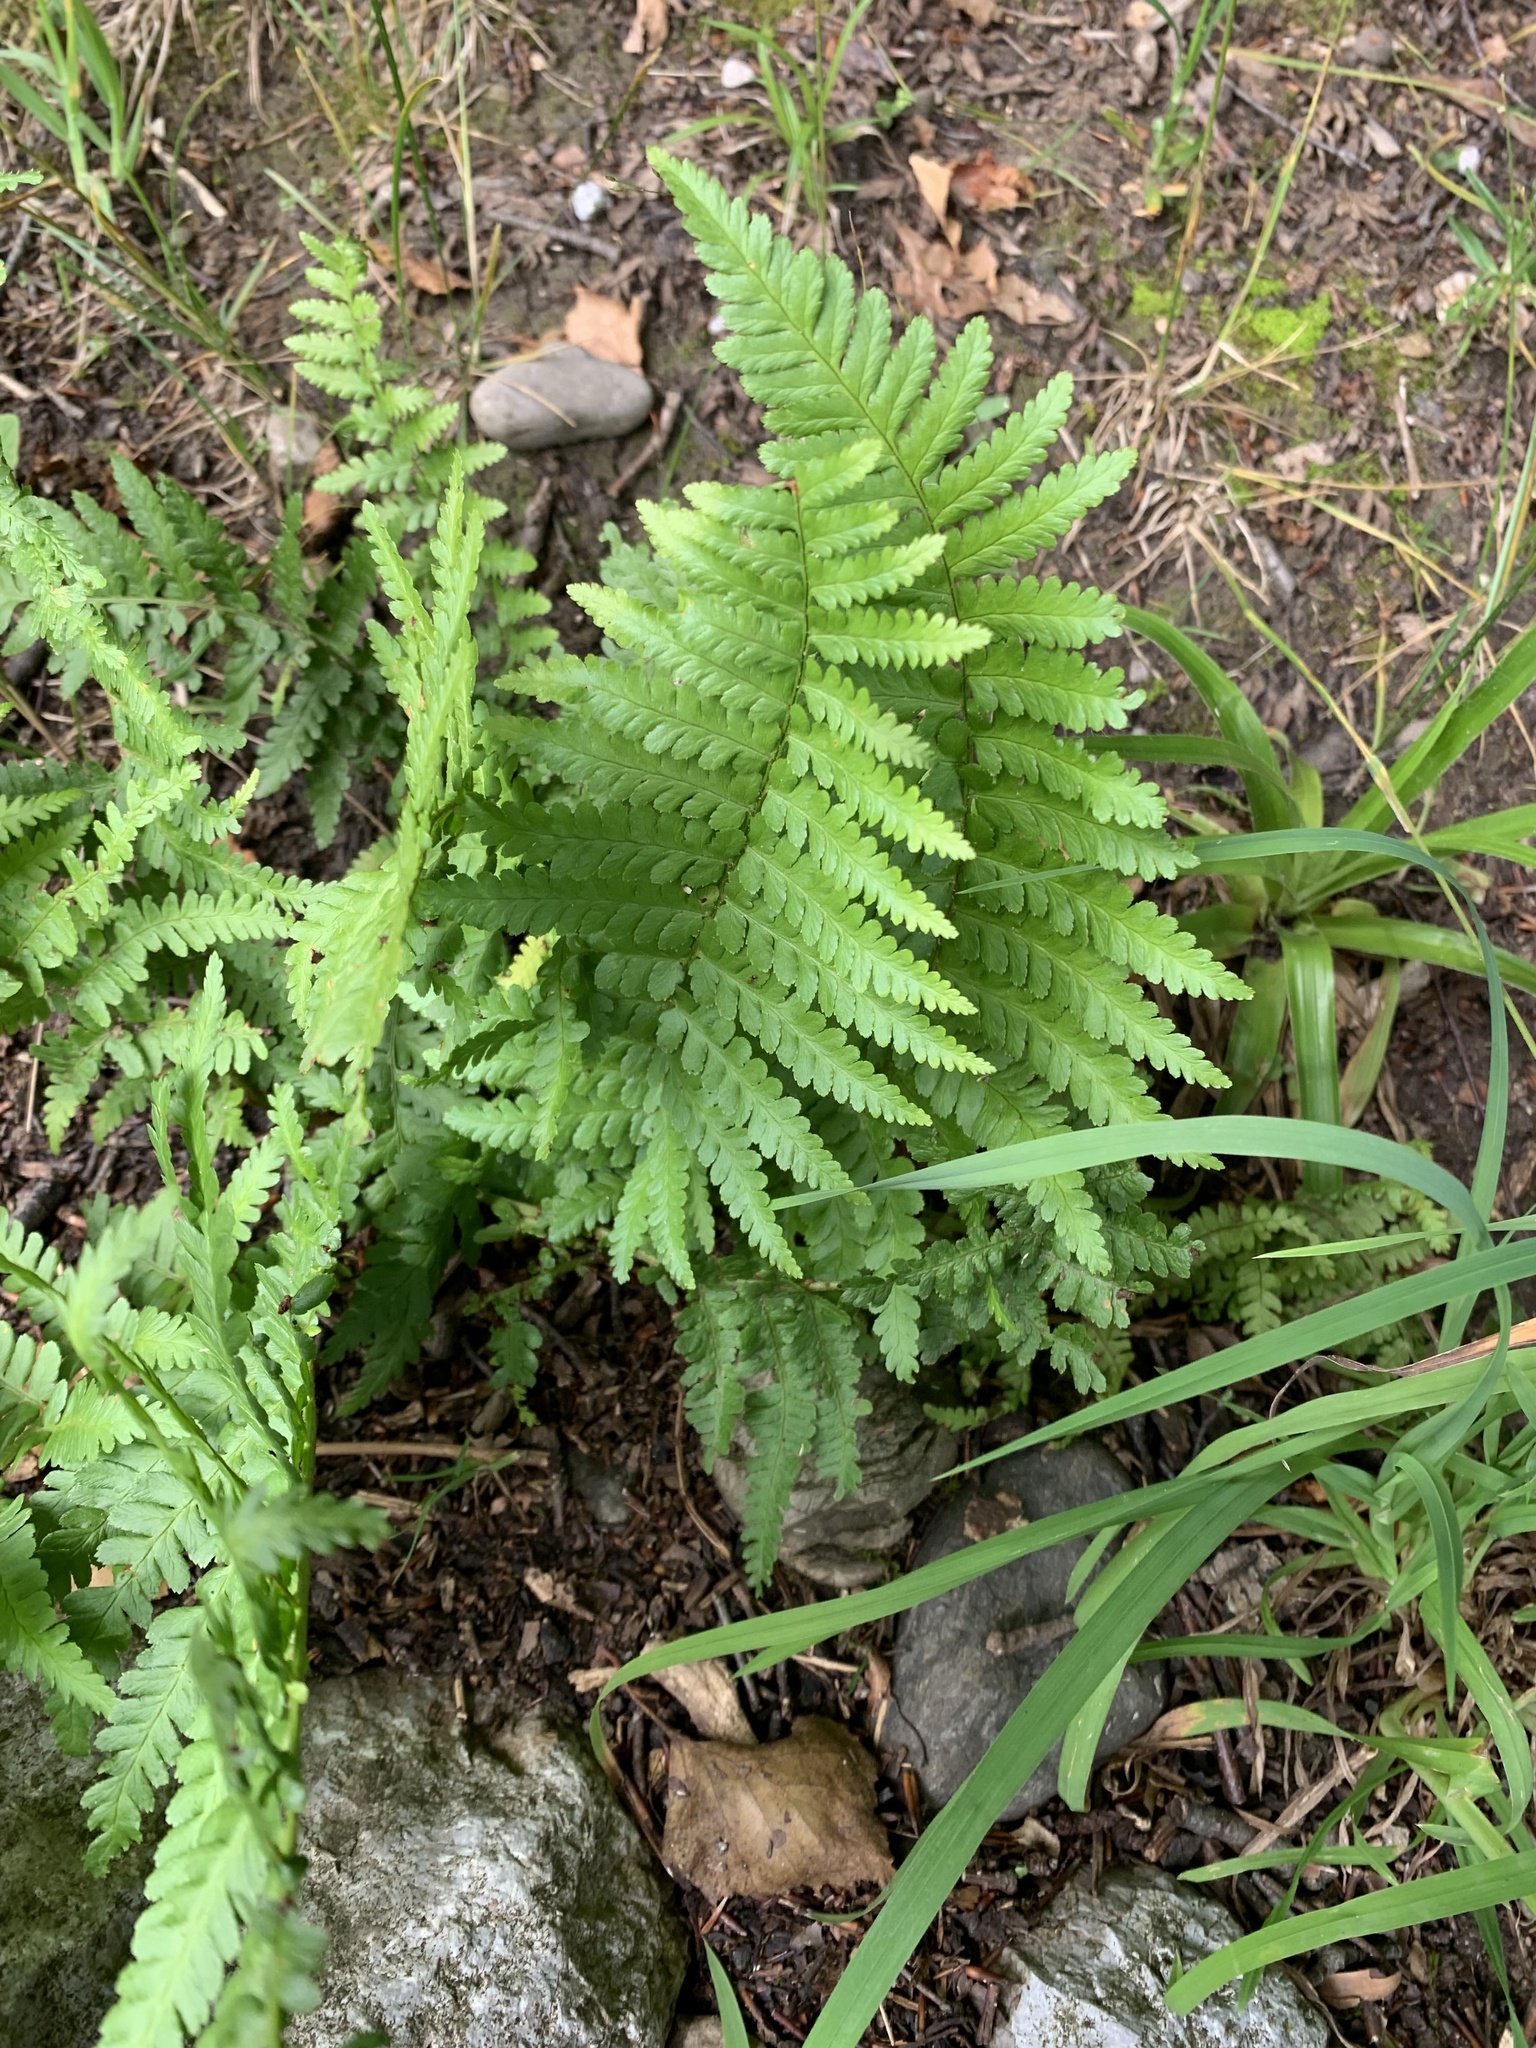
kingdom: Plantae
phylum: Tracheophyta
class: Polypodiopsida
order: Polypodiales
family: Dryopteridaceae
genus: Dryopteris
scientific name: Dryopteris filix-mas
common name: Male fern
